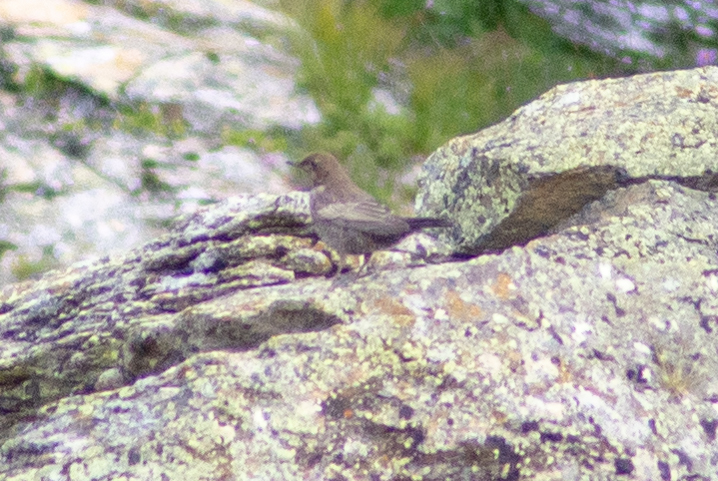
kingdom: Animalia
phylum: Chordata
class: Aves
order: Passeriformes
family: Turdidae
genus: Turdus
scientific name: Turdus torquatus
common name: Ring ouzel
